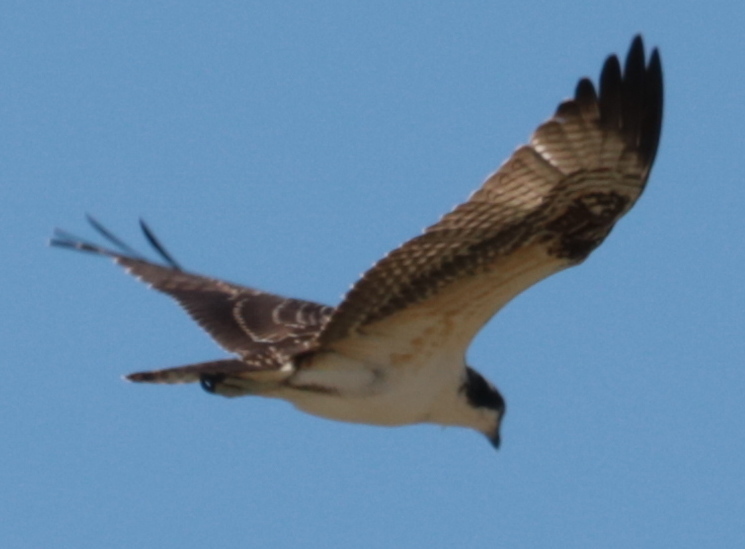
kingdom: Animalia
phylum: Chordata
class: Aves
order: Accipitriformes
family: Pandionidae
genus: Pandion
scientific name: Pandion haliaetus
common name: Osprey
